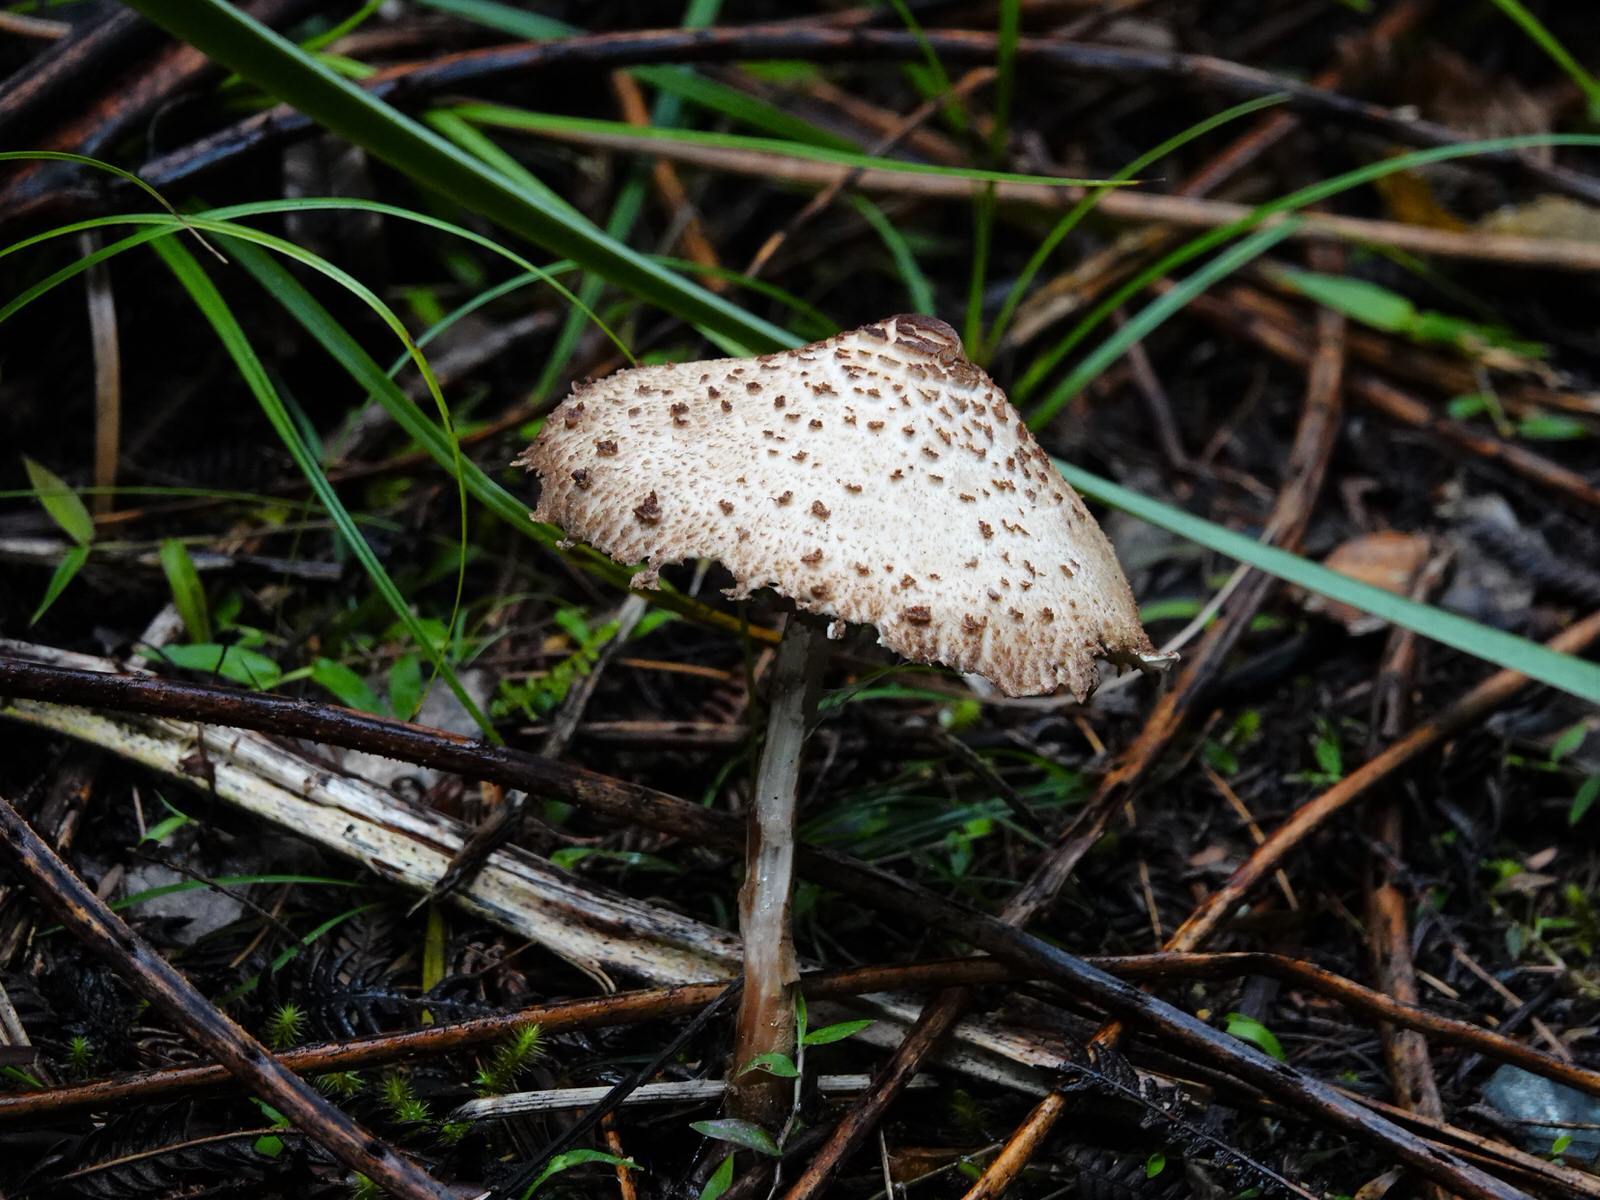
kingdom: Fungi
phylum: Basidiomycota
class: Agaricomycetes
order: Agaricales
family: Agaricaceae
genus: Macrolepiota
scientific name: Macrolepiota clelandii
